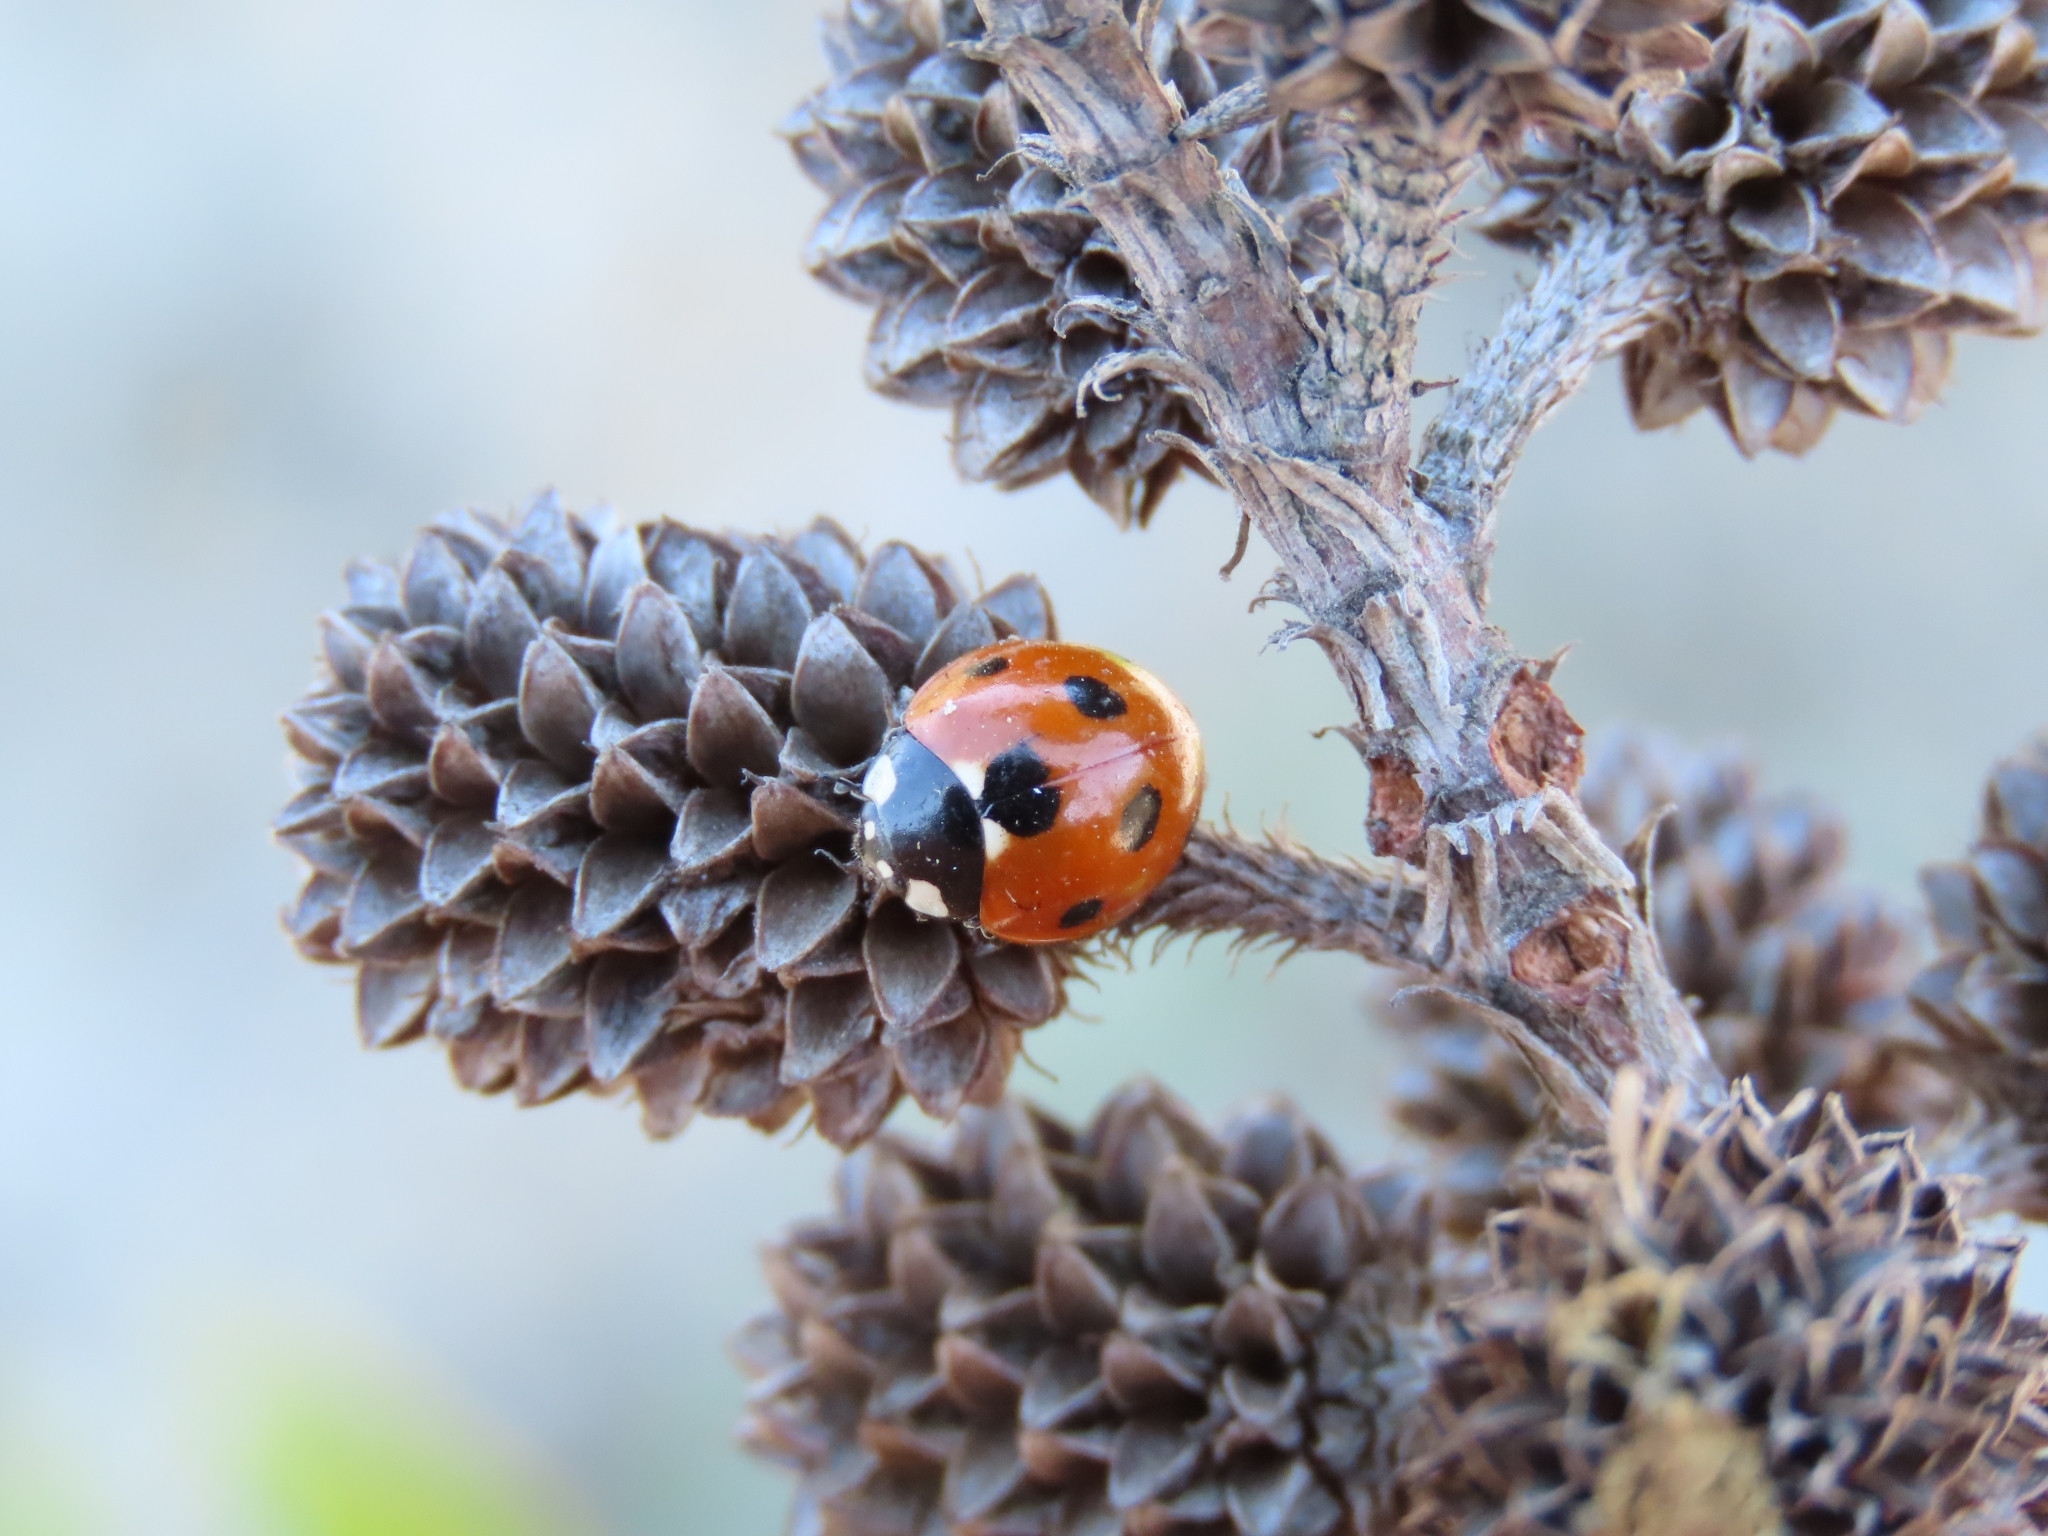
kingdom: Animalia
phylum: Arthropoda
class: Insecta
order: Coleoptera
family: Coccinellidae
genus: Coccinella
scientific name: Coccinella septempunctata
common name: Sevenspotted lady beetle
